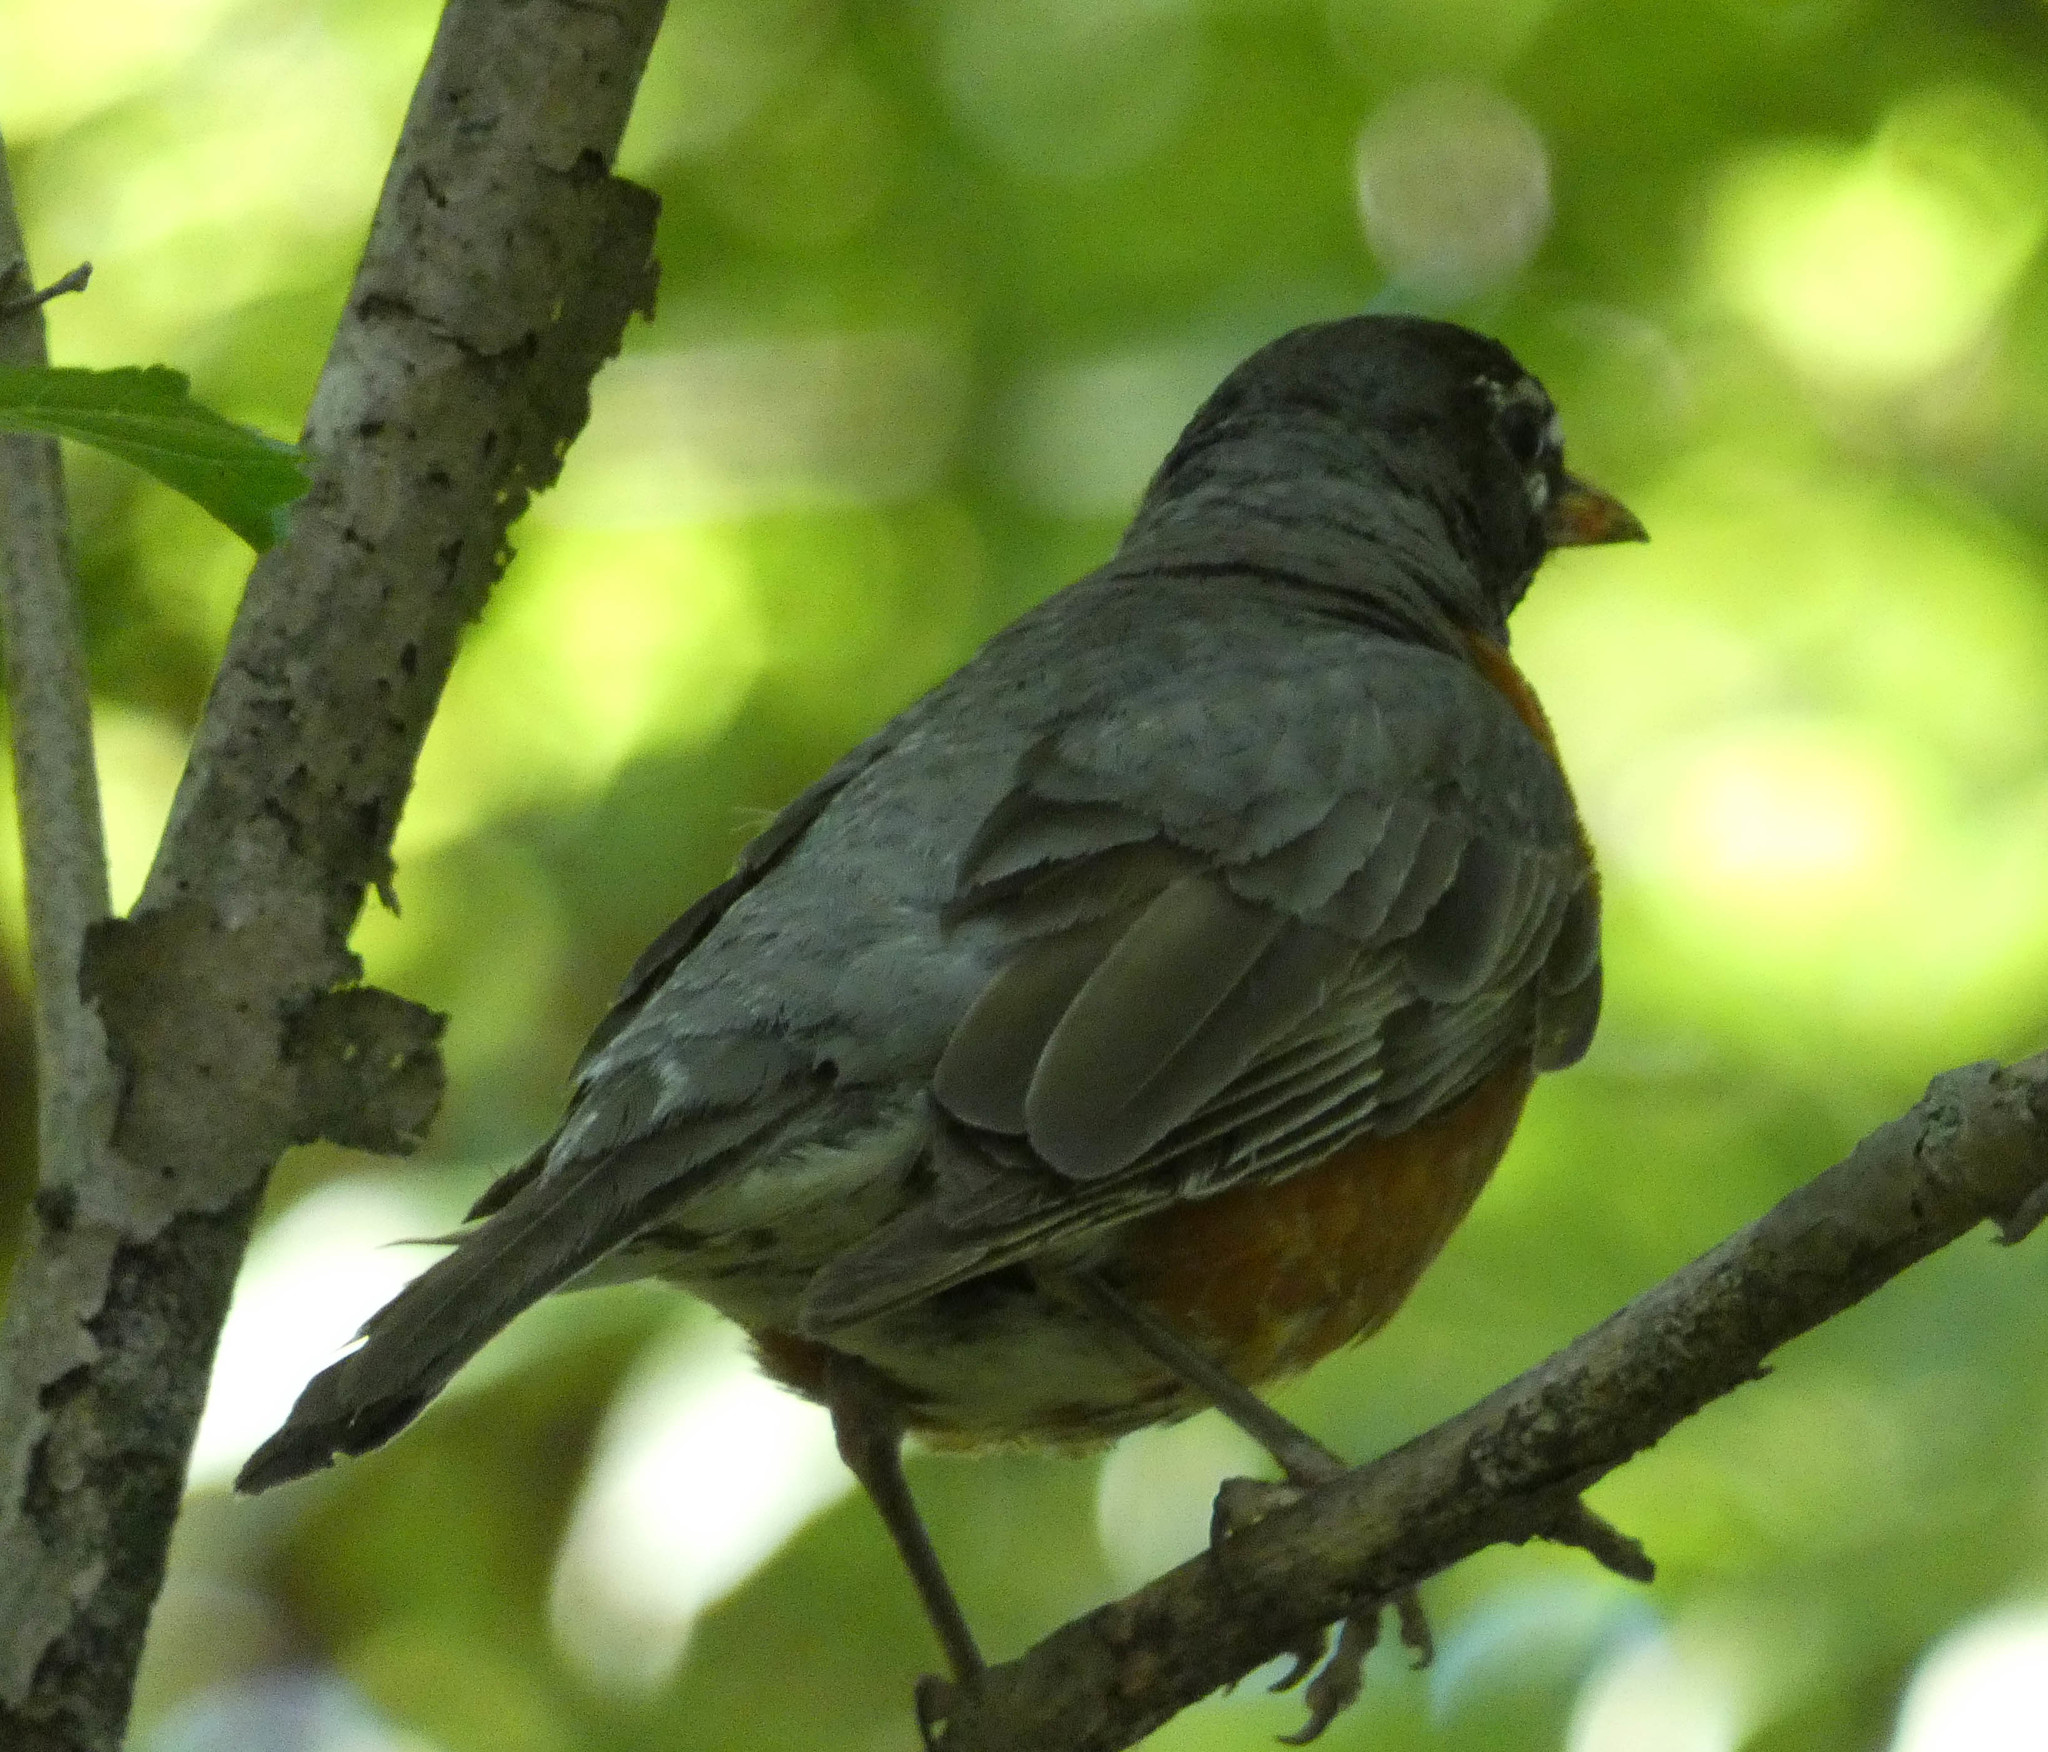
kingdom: Animalia
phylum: Chordata
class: Aves
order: Passeriformes
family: Turdidae
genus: Turdus
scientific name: Turdus migratorius
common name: American robin
